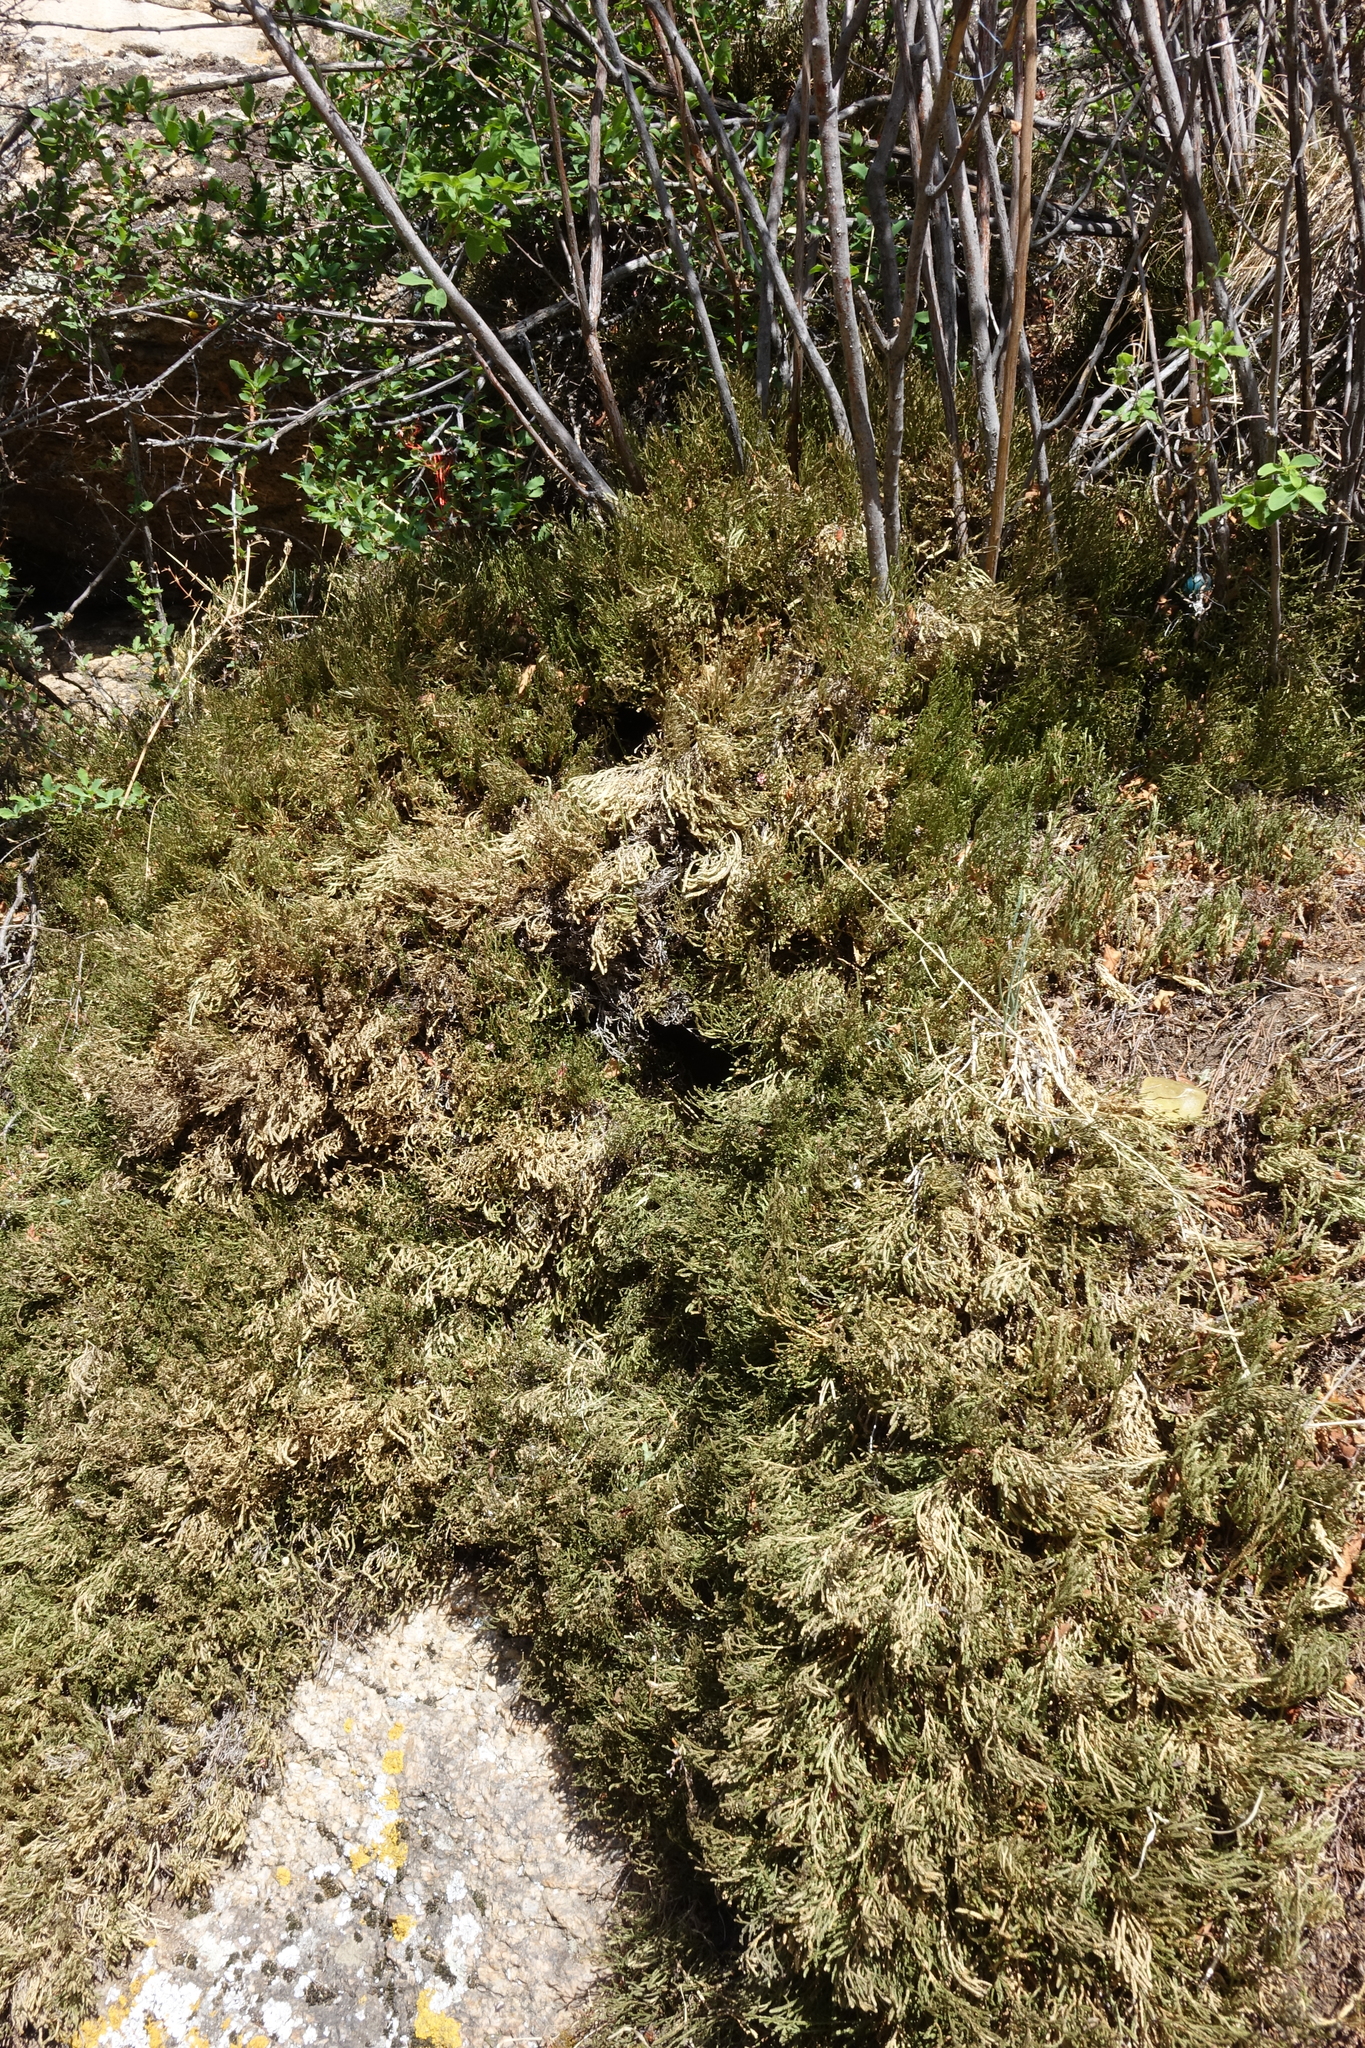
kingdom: Plantae
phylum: Tracheophyta
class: Lycopodiopsida
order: Selaginellales
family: Selaginellaceae
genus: Selaginella
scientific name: Selaginella sanguinolenta
